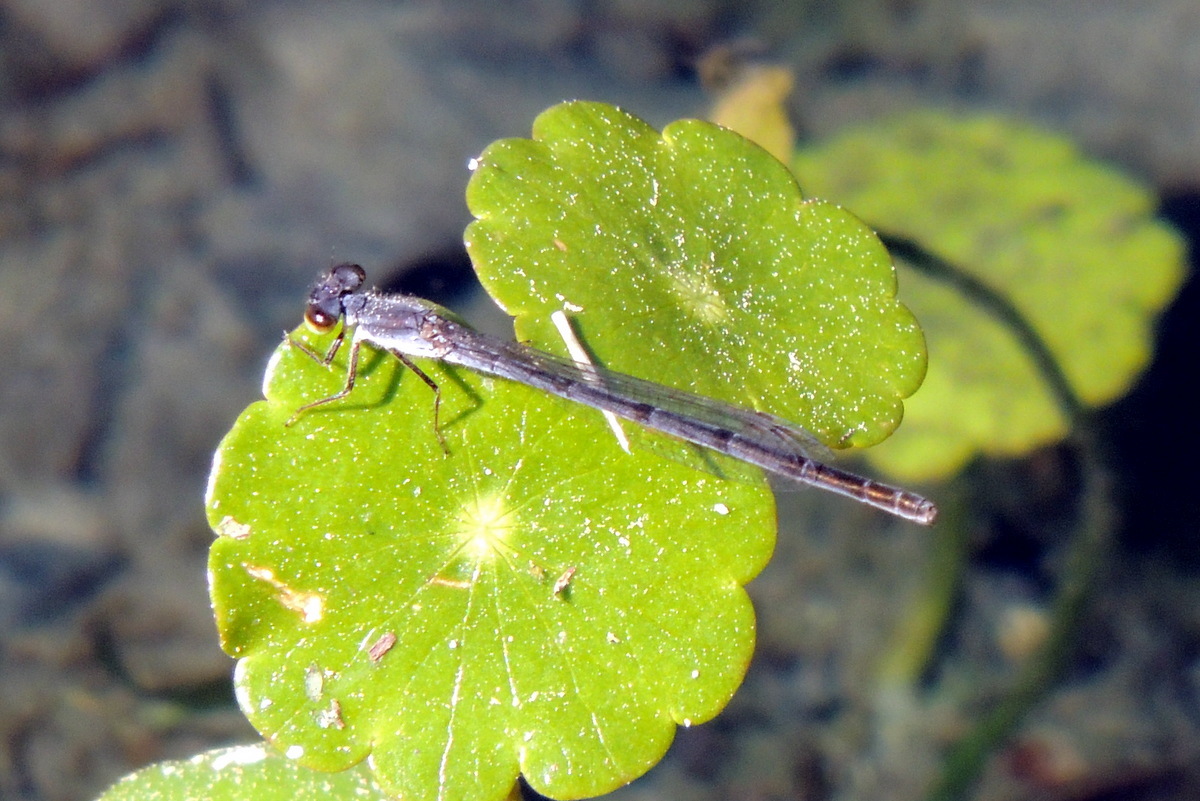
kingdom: Animalia
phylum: Arthropoda
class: Insecta
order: Odonata
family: Coenagrionidae
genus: Ischnura
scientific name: Ischnura posita
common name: Fragile forktail
